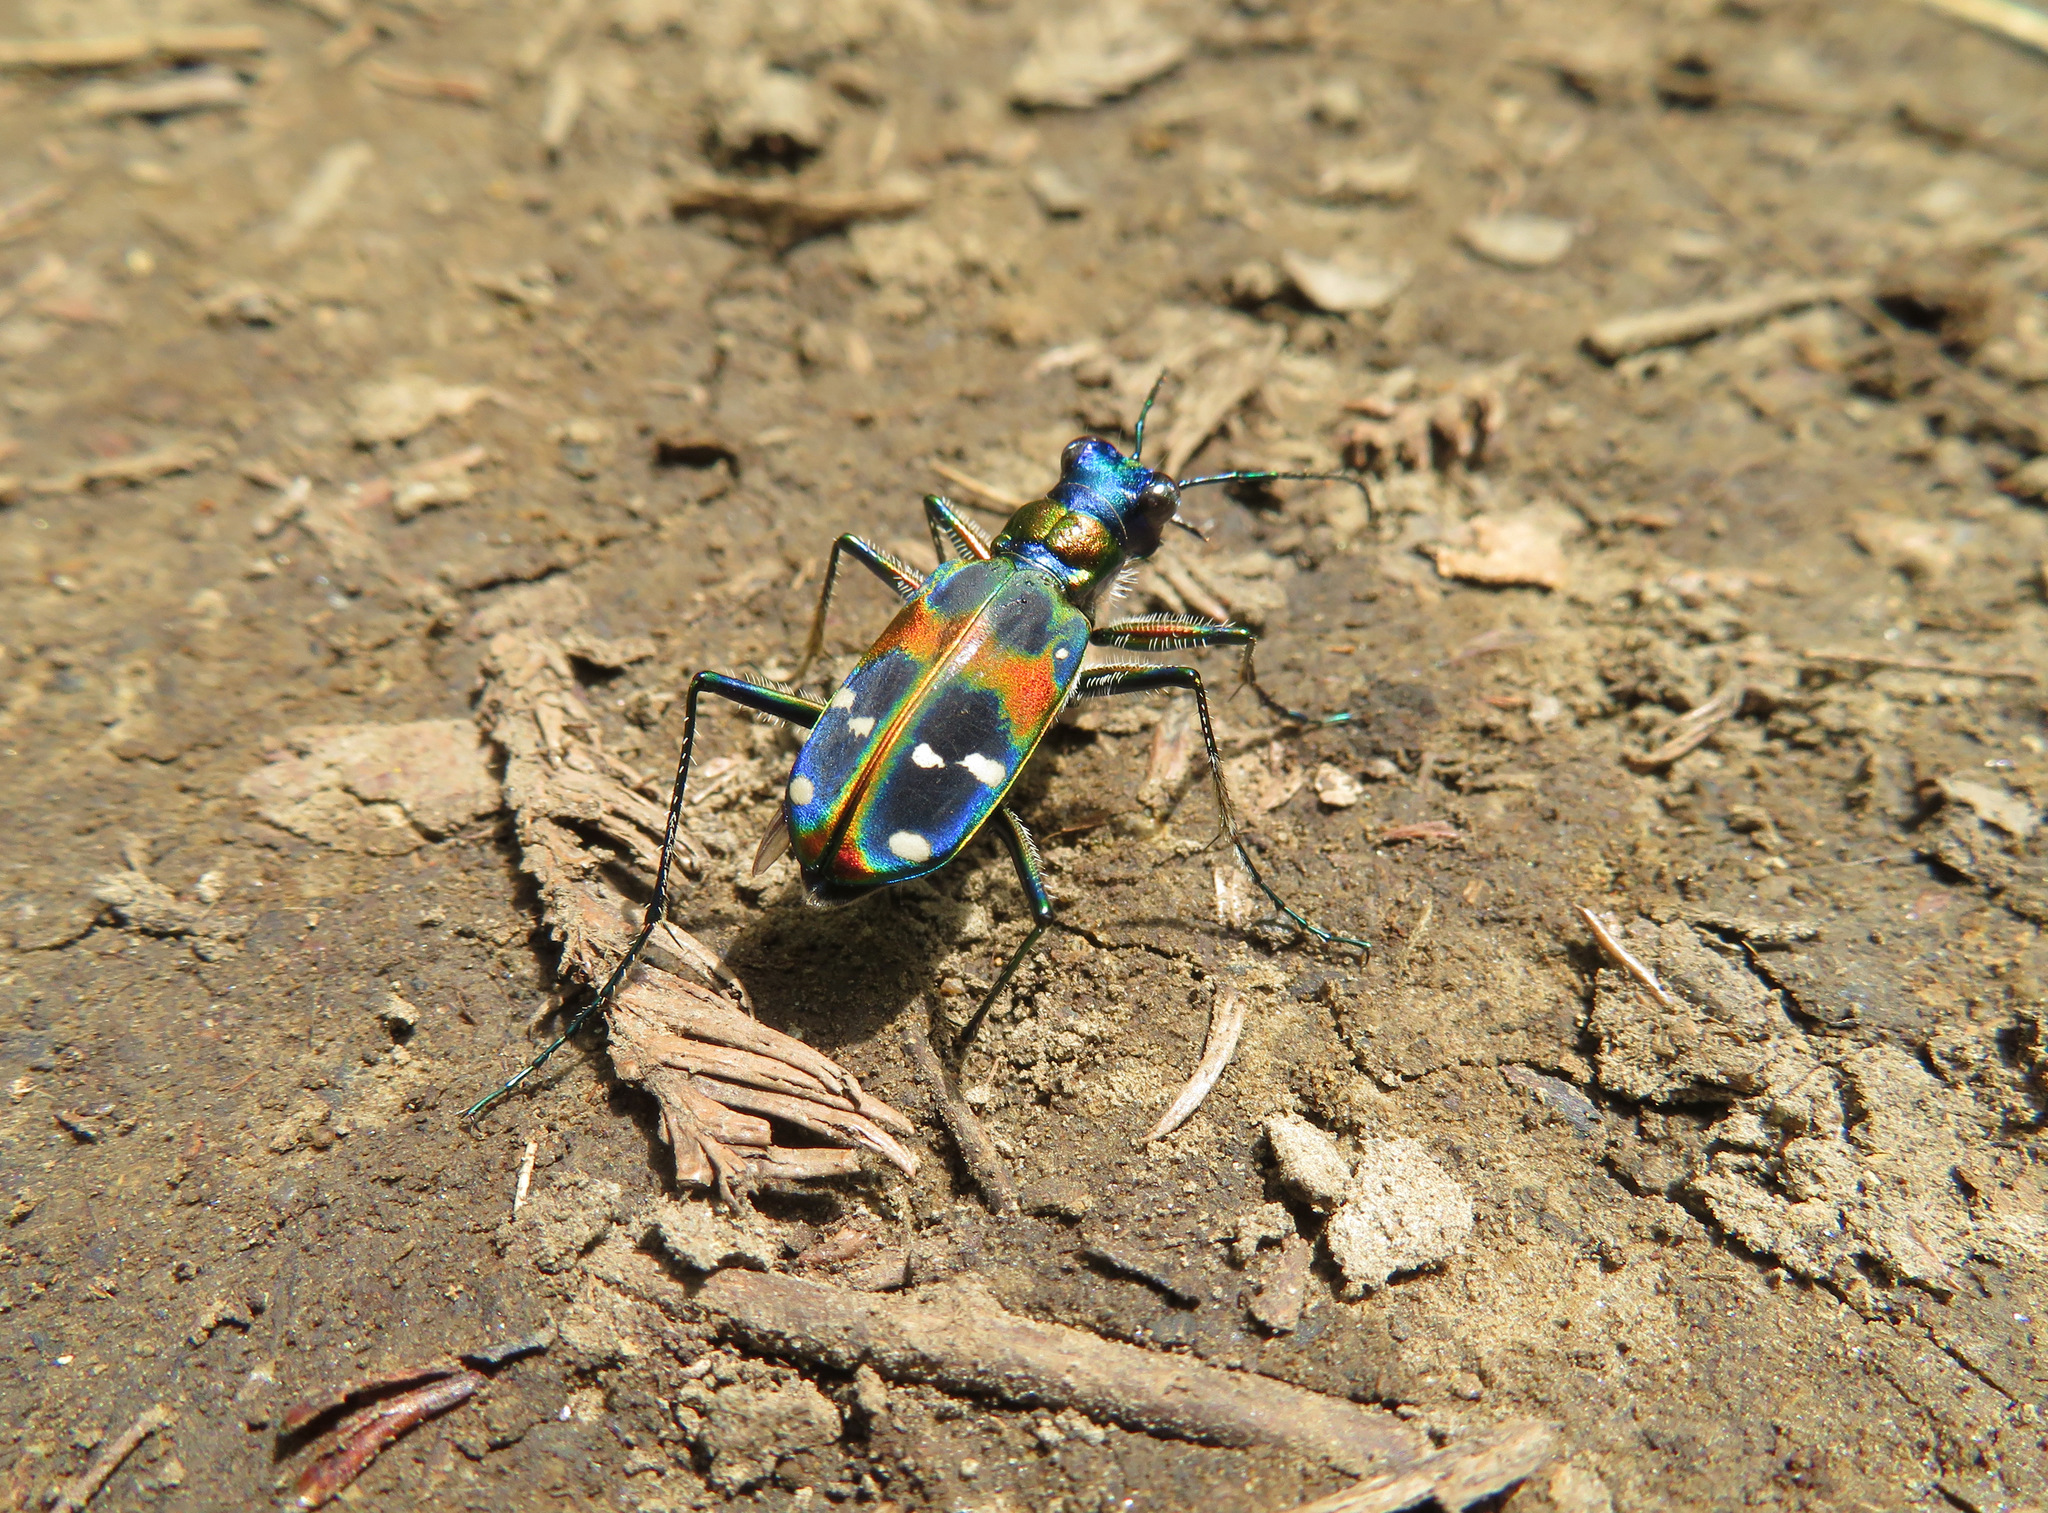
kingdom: Animalia
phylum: Arthropoda
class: Insecta
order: Coleoptera
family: Carabidae
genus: Cicindela
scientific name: Cicindela chinensis
